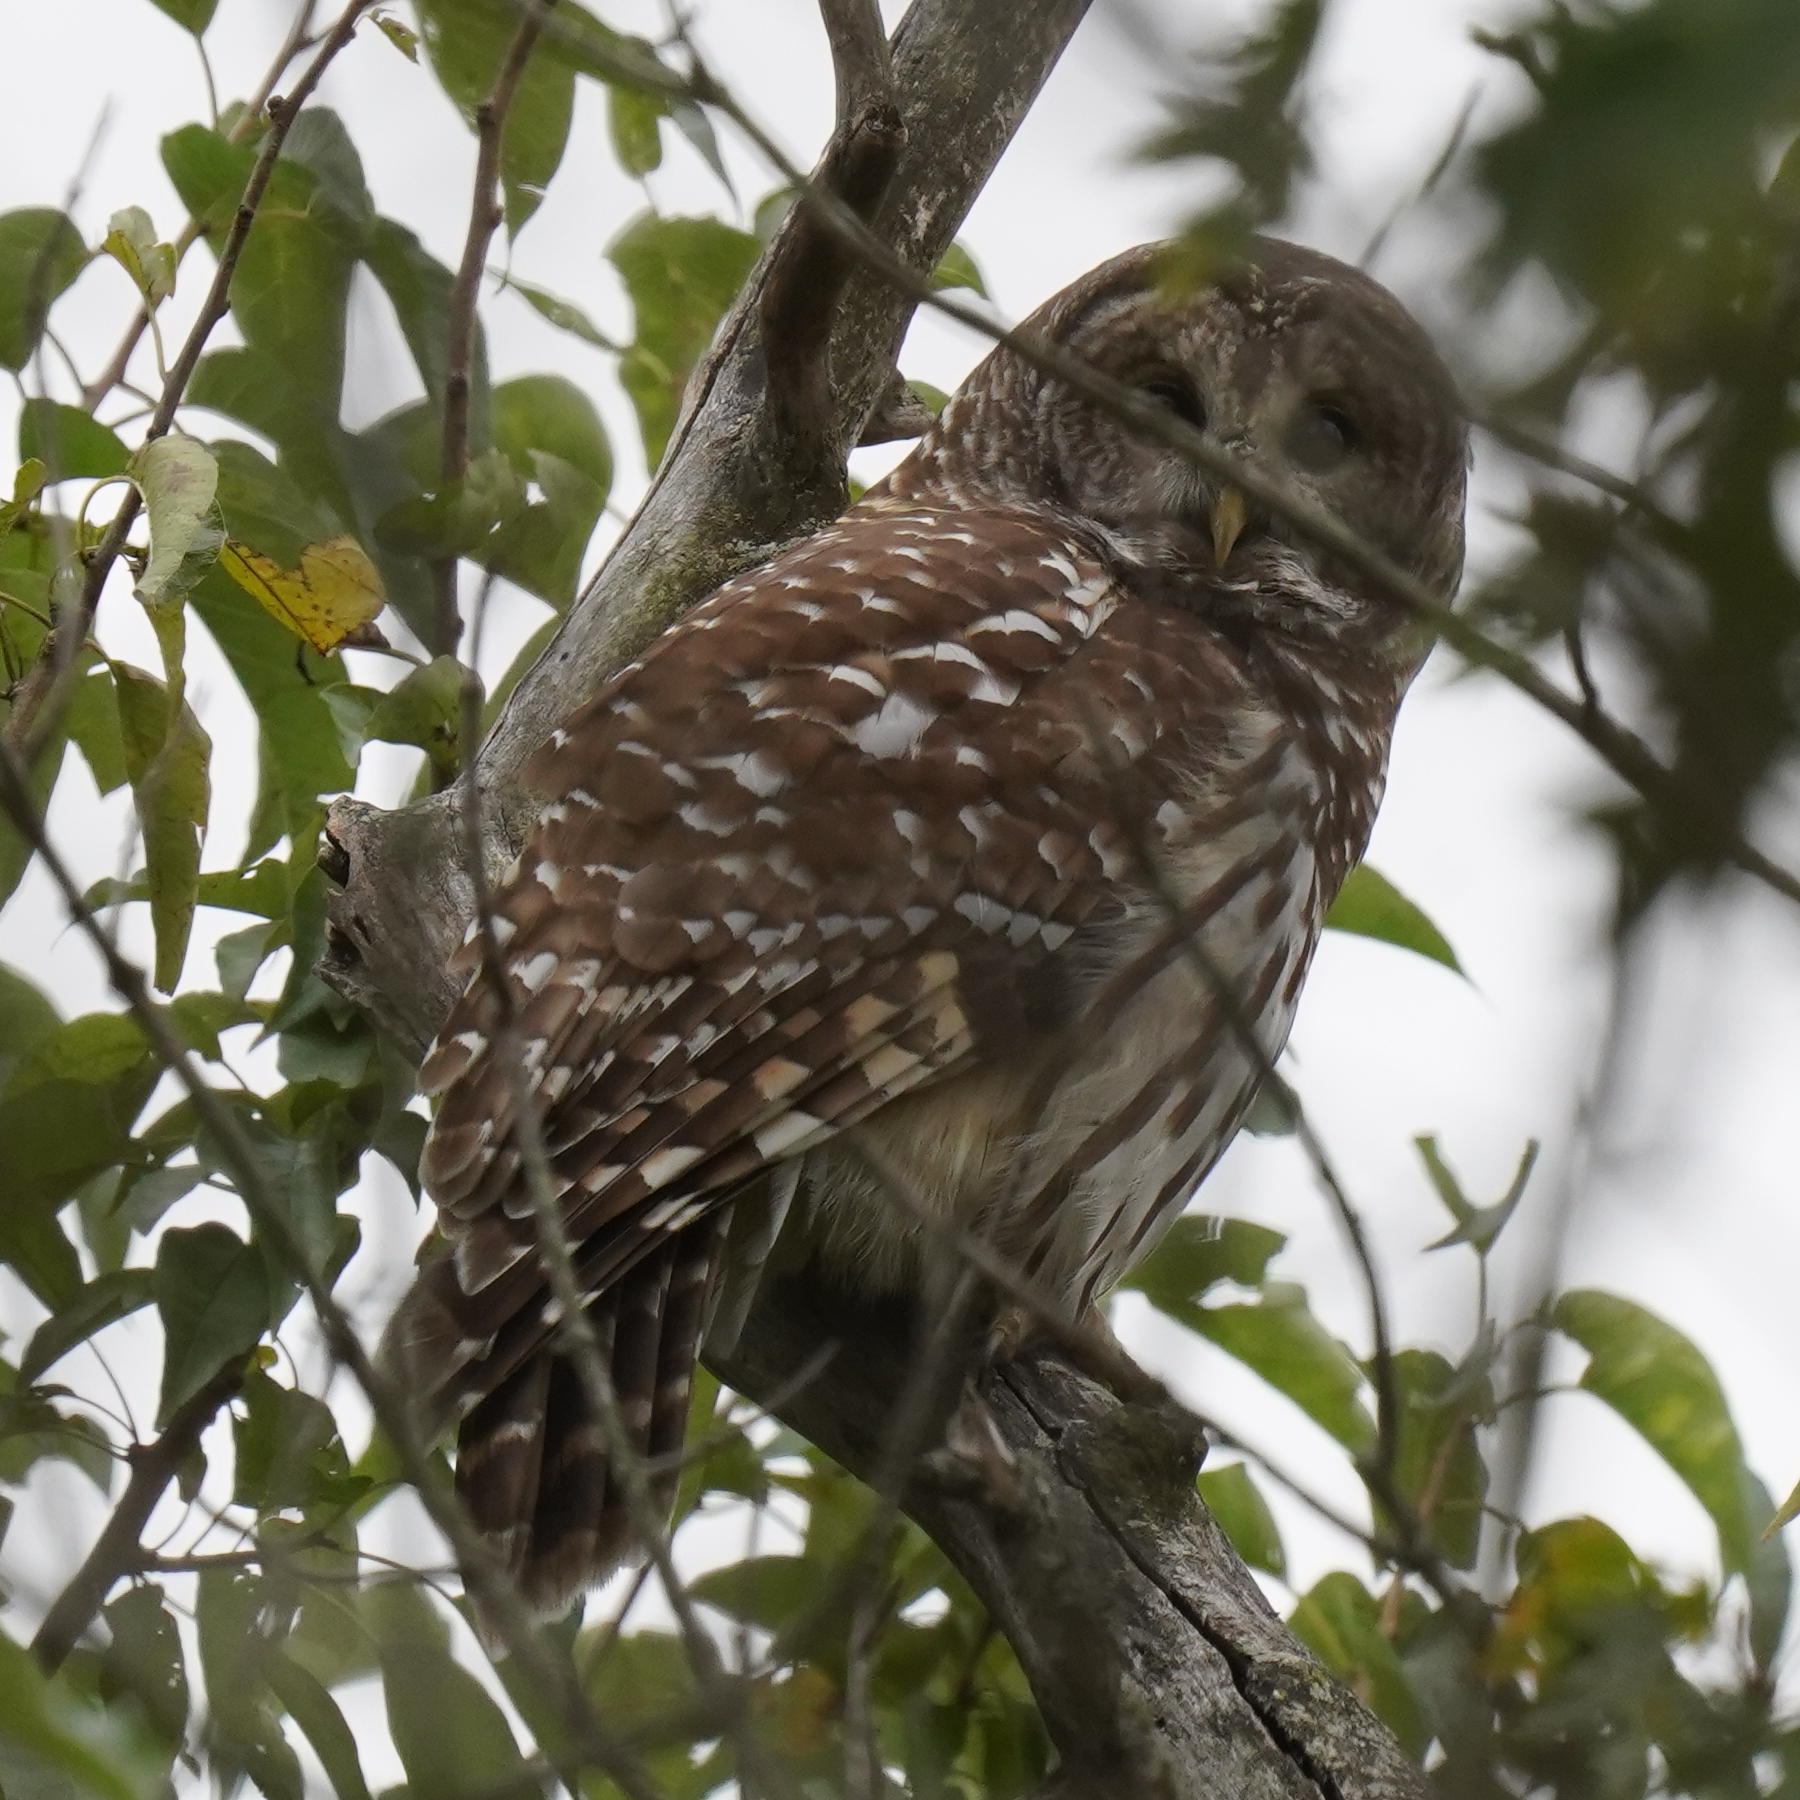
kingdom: Animalia
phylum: Chordata
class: Aves
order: Strigiformes
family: Strigidae
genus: Strix
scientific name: Strix varia
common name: Barred owl
